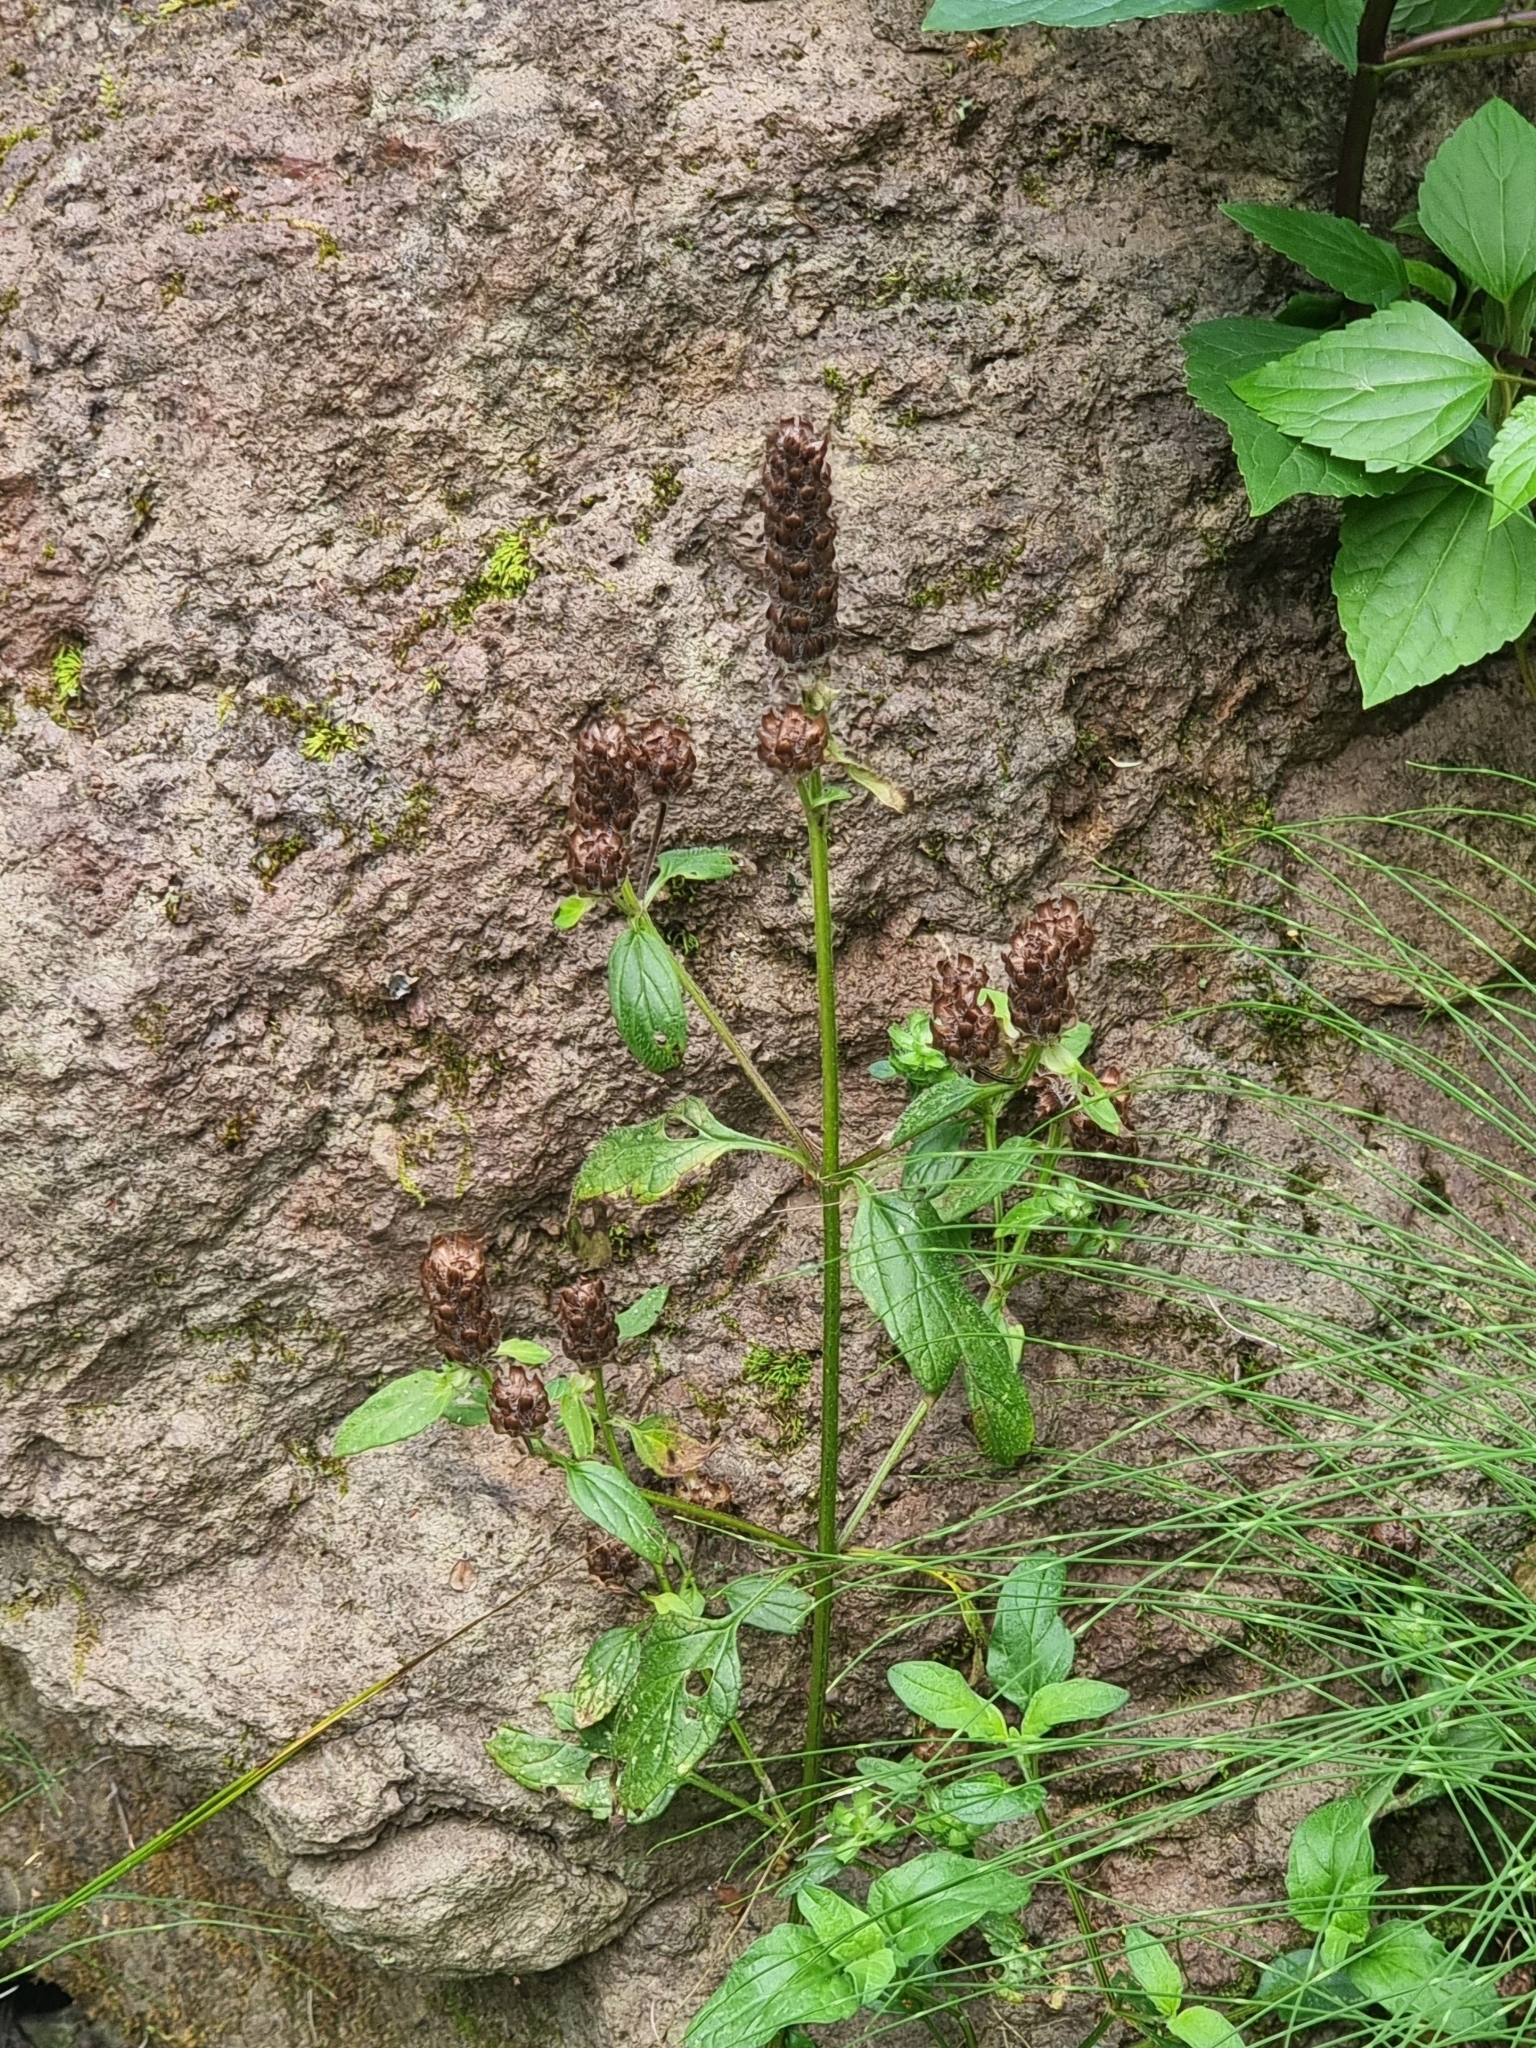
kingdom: Plantae
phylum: Tracheophyta
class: Magnoliopsida
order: Lamiales
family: Lamiaceae
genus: Prunella
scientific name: Prunella vulgaris
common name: Heal-all
